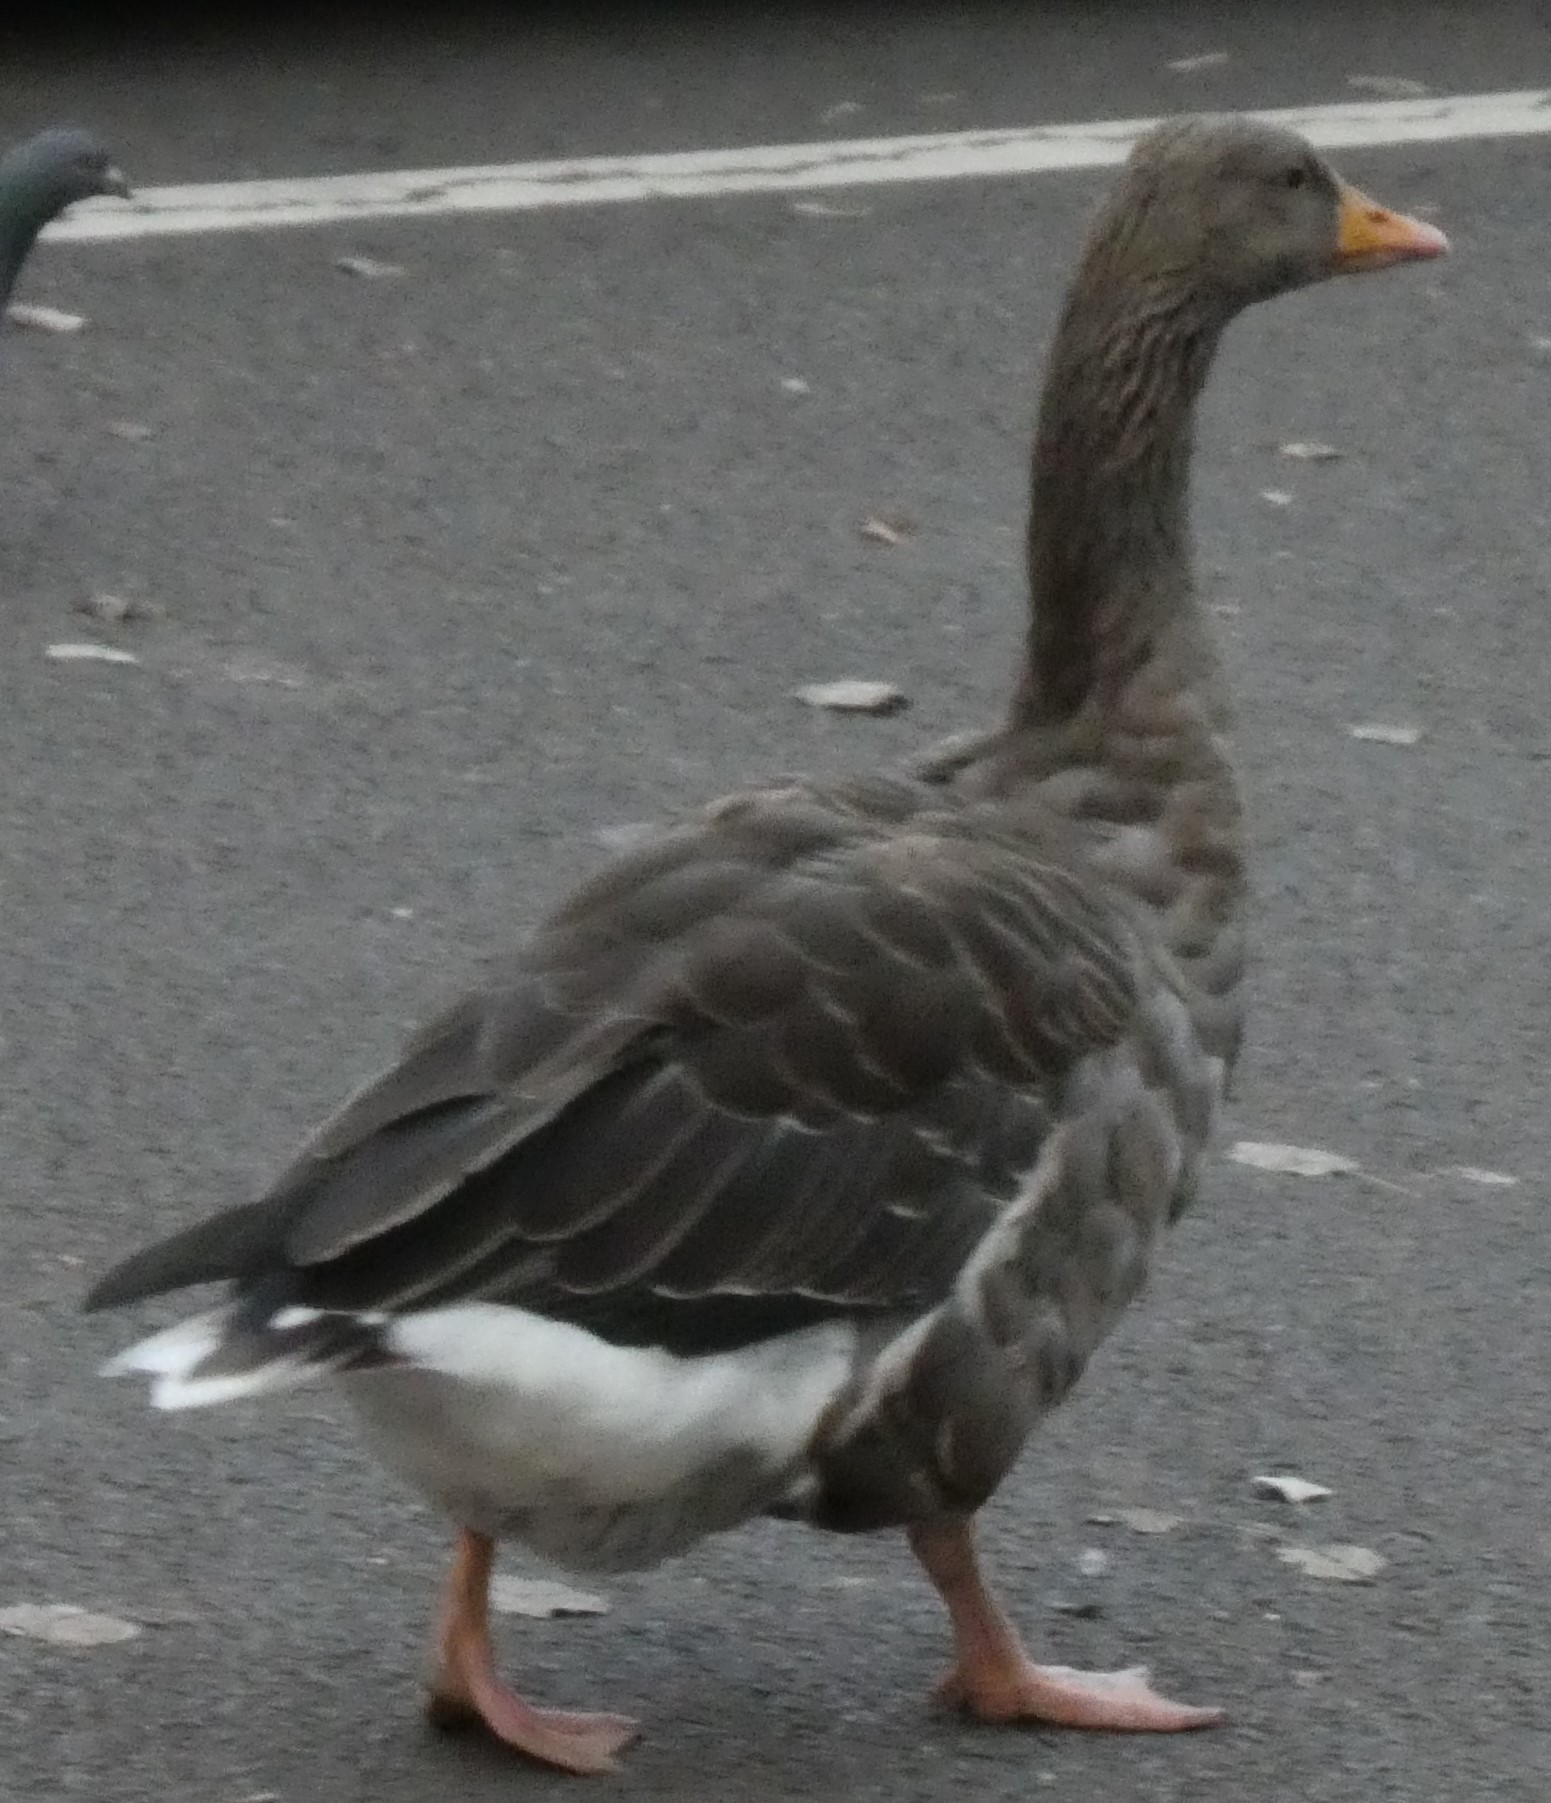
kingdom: Animalia
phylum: Chordata
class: Aves
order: Anseriformes
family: Anatidae
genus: Anser
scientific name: Anser anser
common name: Greylag goose
